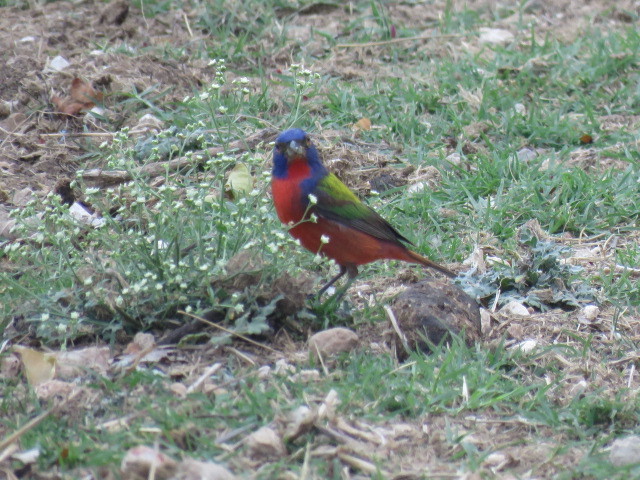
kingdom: Animalia
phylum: Chordata
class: Aves
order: Passeriformes
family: Cardinalidae
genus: Passerina
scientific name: Passerina ciris
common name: Painted bunting
